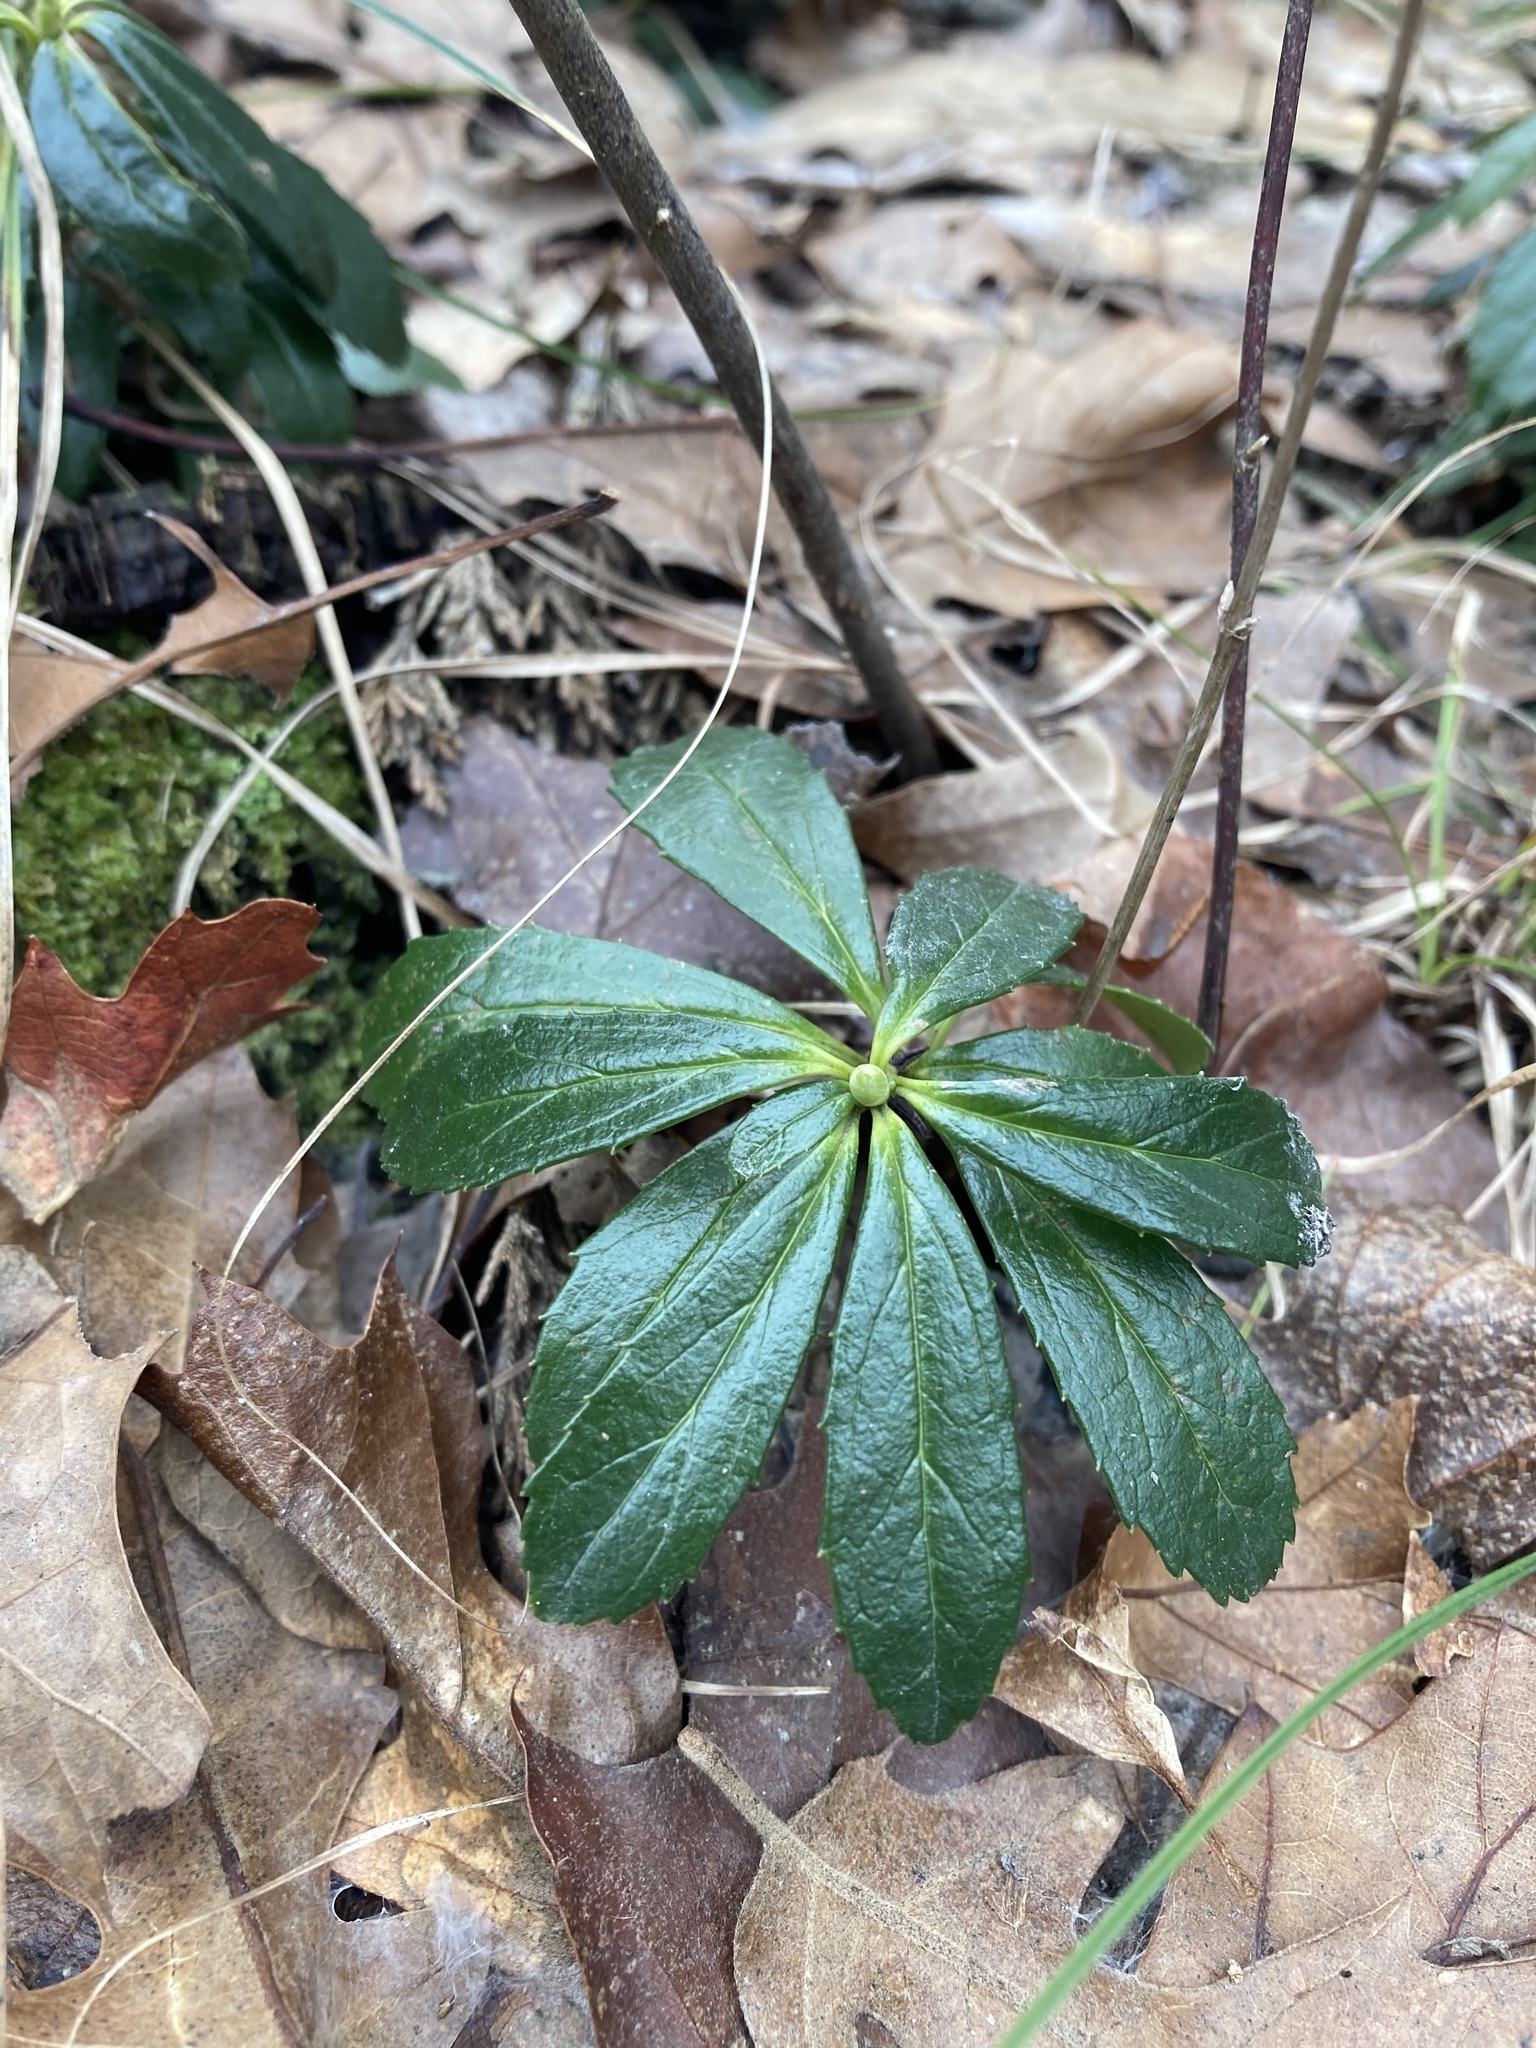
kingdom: Plantae
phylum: Tracheophyta
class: Magnoliopsida
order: Ericales
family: Ericaceae
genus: Chimaphila
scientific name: Chimaphila umbellata
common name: Pipsissewa
